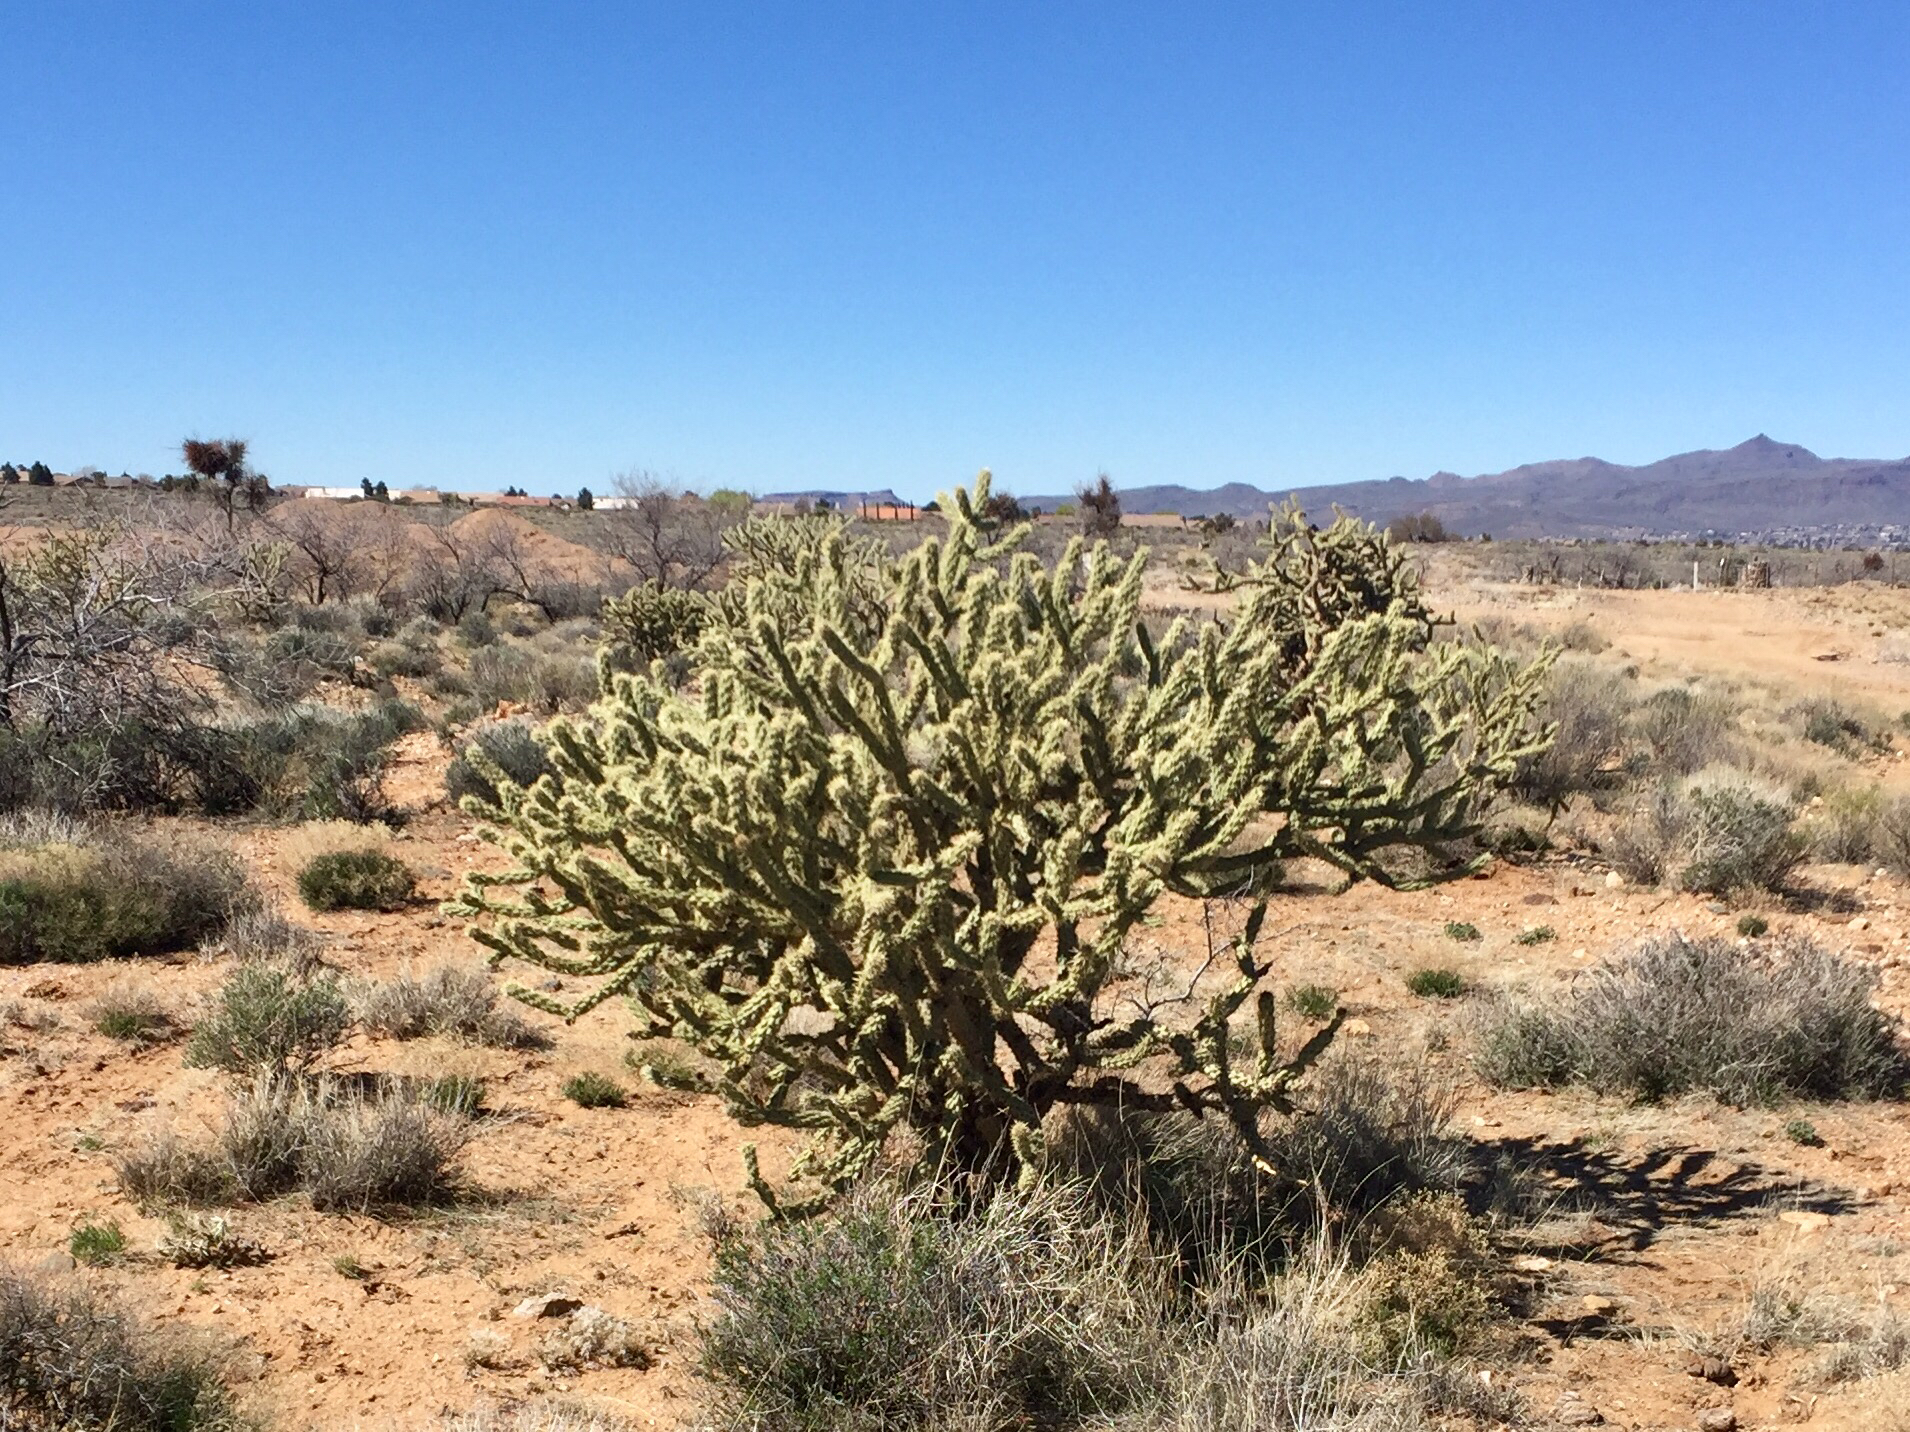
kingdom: Plantae
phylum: Tracheophyta
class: Magnoliopsida
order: Caryophyllales
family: Cactaceae
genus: Cylindropuntia
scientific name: Cylindropuntia acanthocarpa
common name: Buckhorn cholla
